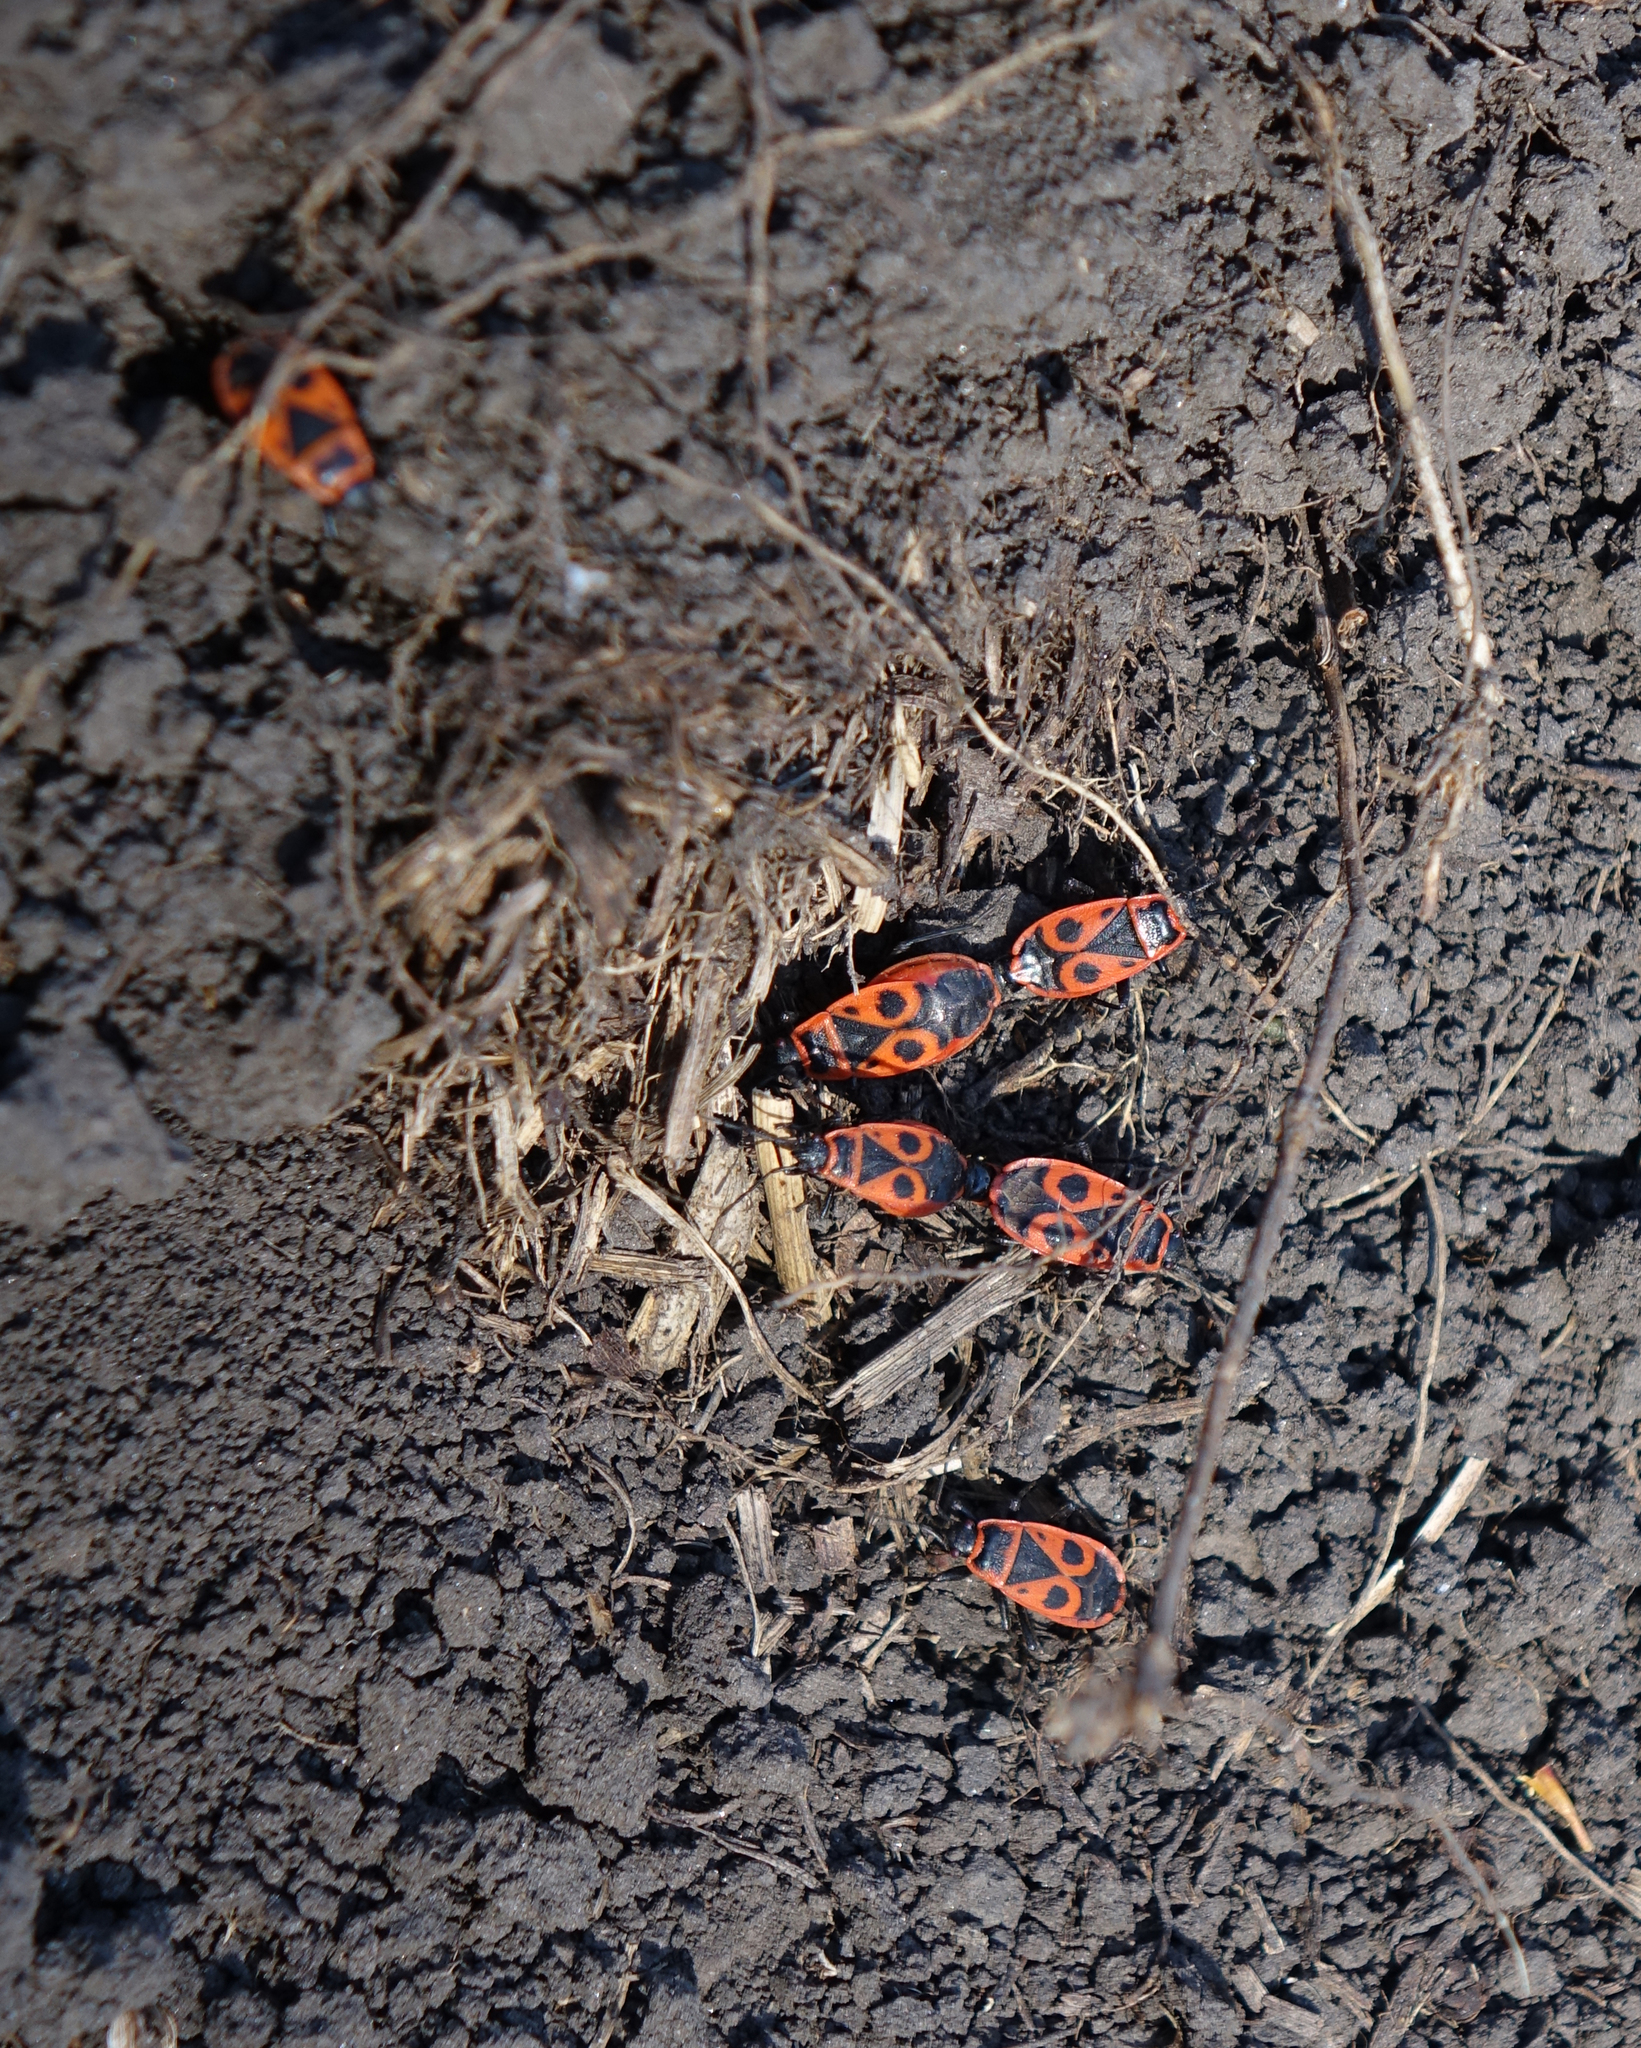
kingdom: Animalia
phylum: Arthropoda
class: Insecta
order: Hemiptera
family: Pyrrhocoridae
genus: Pyrrhocoris
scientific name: Pyrrhocoris apterus
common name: Firebug
